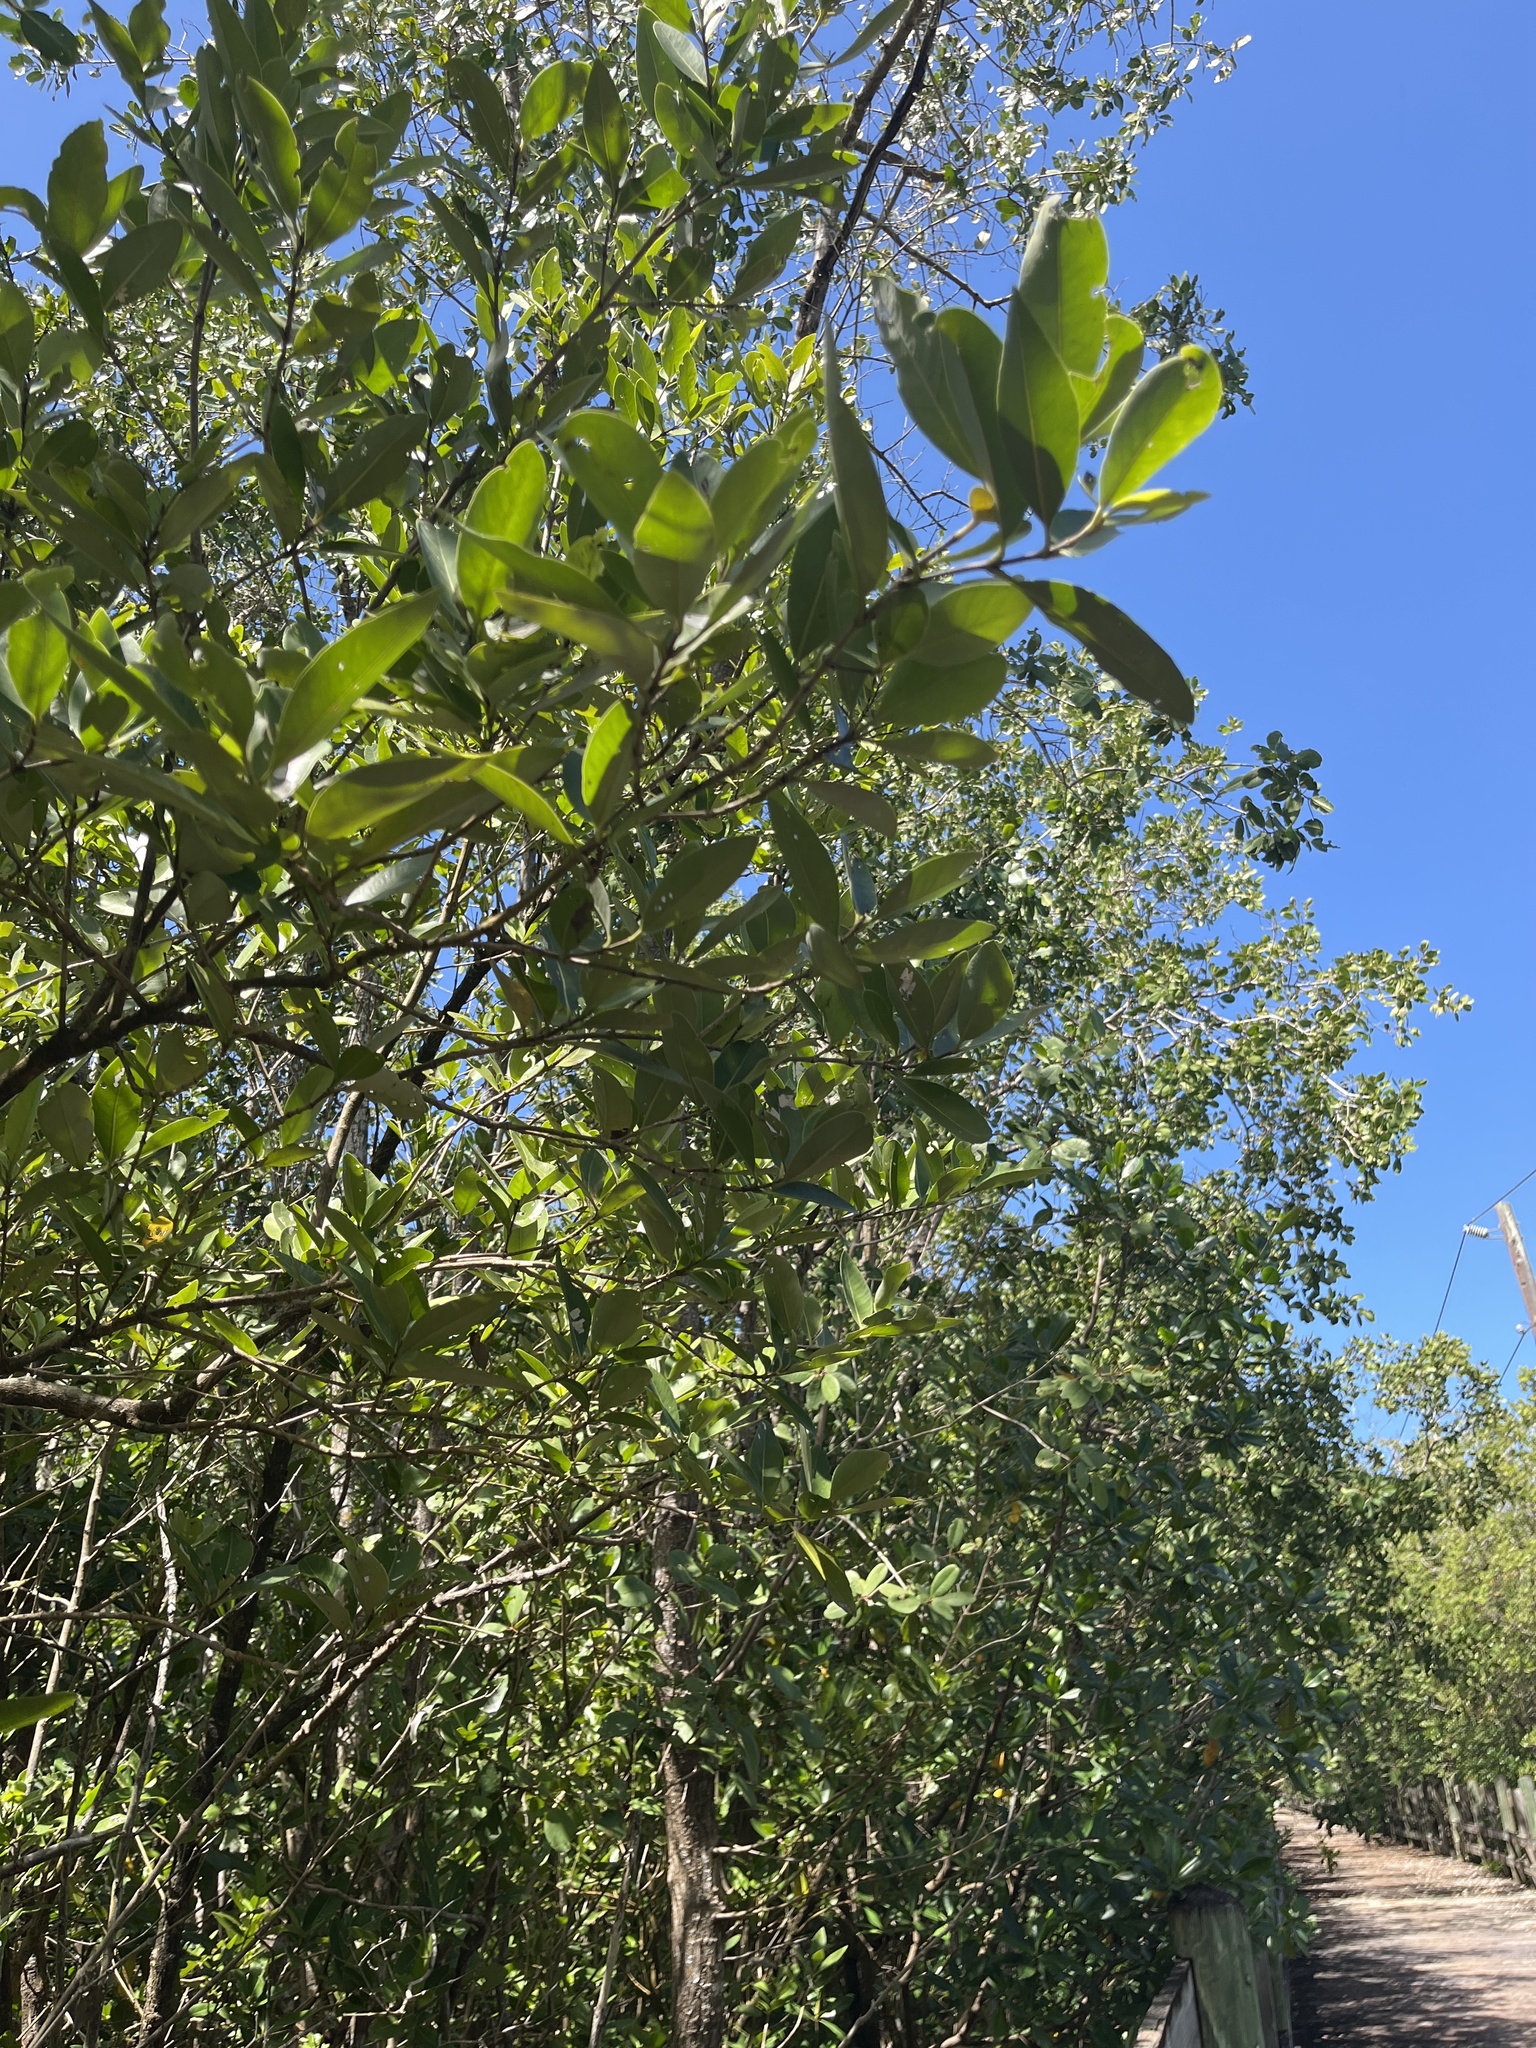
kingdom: Plantae
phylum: Tracheophyta
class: Magnoliopsida
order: Lamiales
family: Acanthaceae
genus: Avicennia
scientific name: Avicennia germinans
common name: Black mangrove
